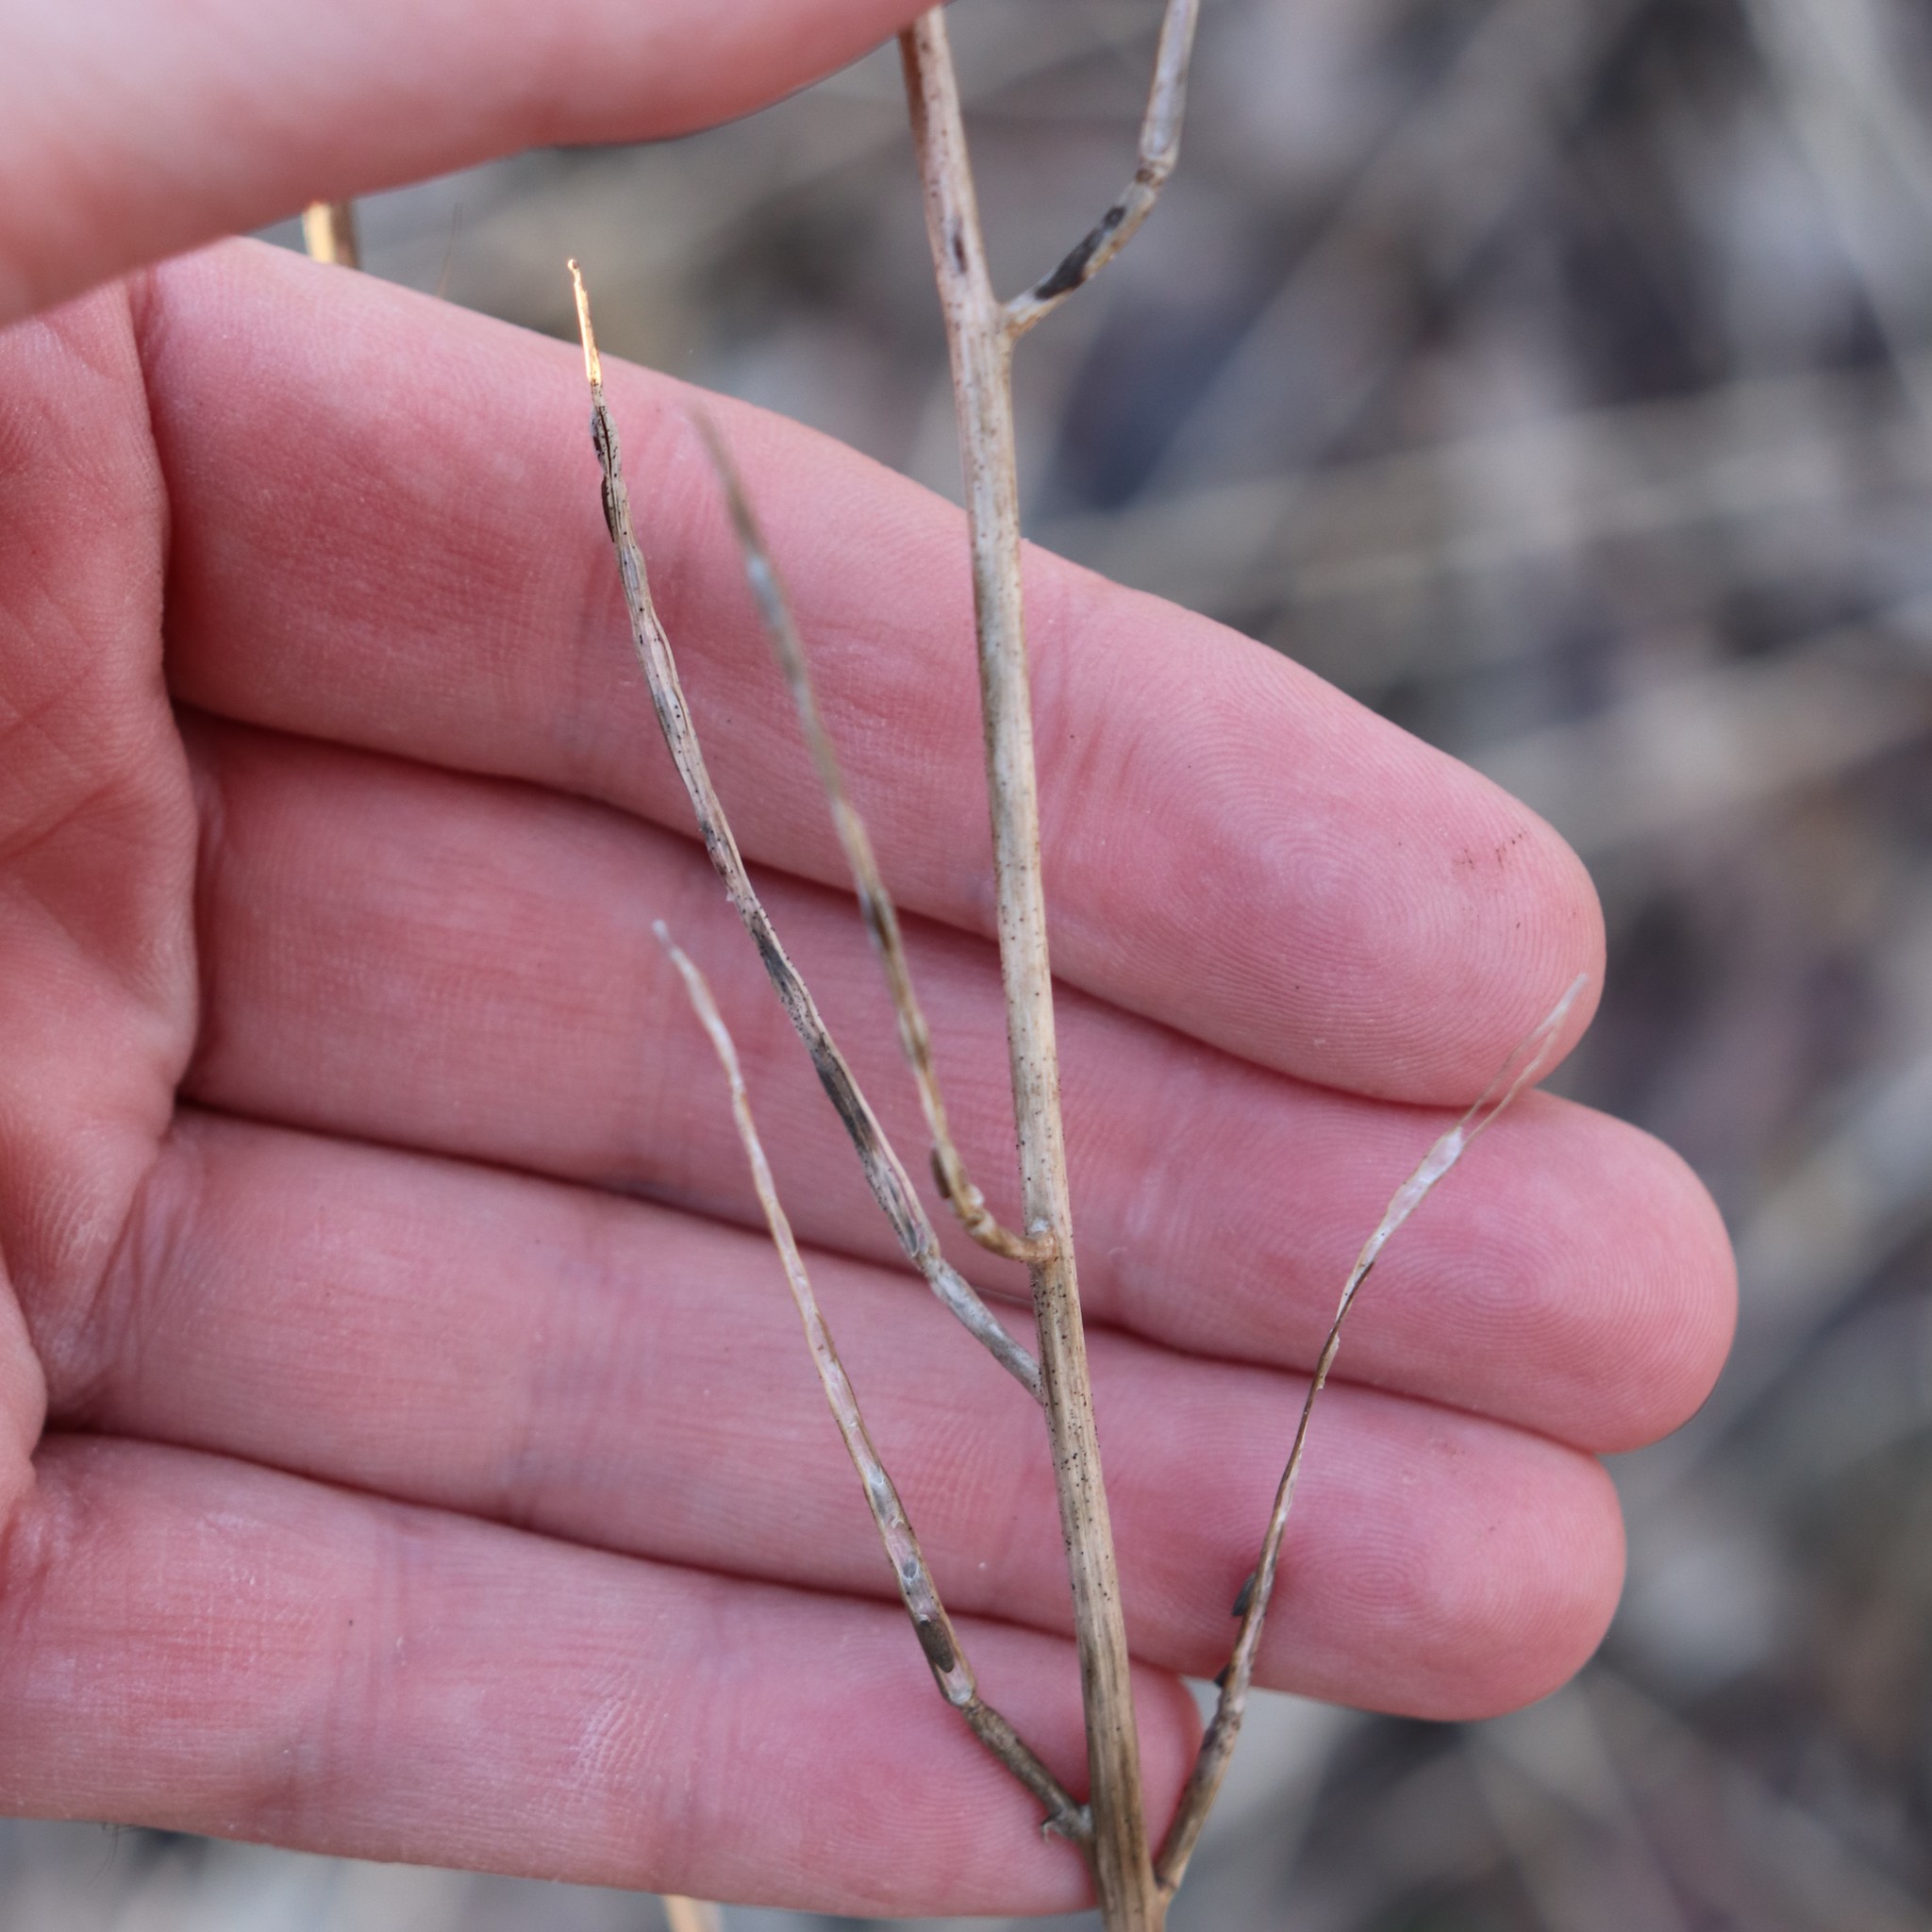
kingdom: Plantae
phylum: Tracheophyta
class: Magnoliopsida
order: Brassicales
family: Brassicaceae
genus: Alliaria
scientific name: Alliaria petiolata
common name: Garlic mustard
